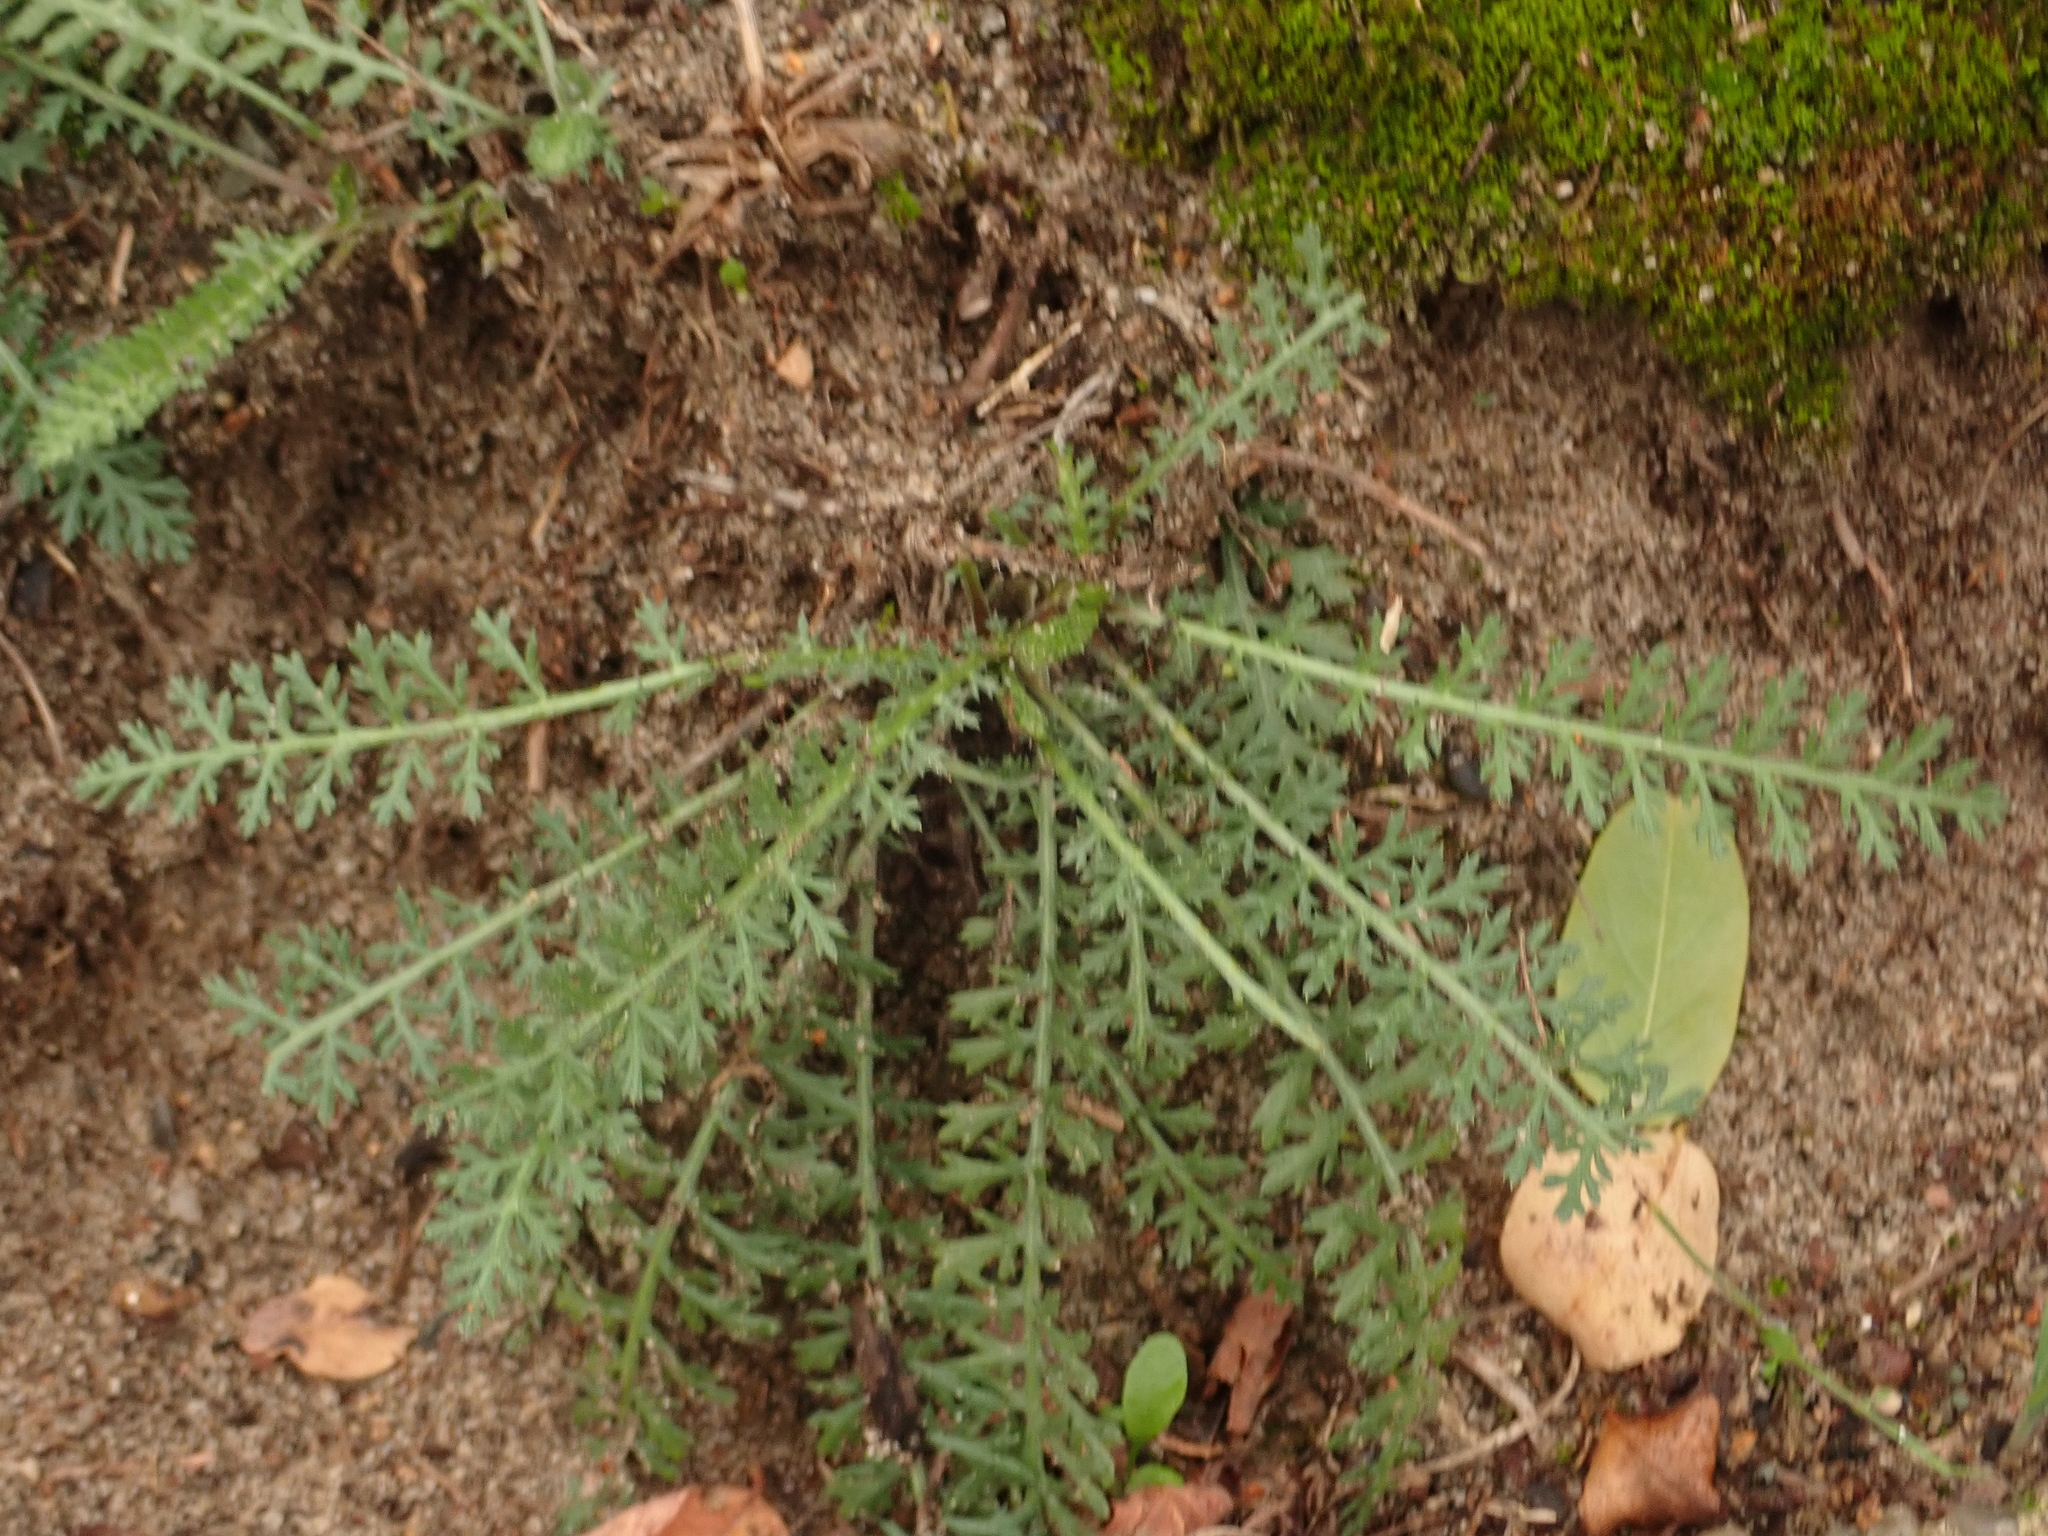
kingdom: Plantae
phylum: Tracheophyta
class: Magnoliopsida
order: Asterales
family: Asteraceae
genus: Achillea
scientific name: Achillea millefolium
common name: Yarrow
